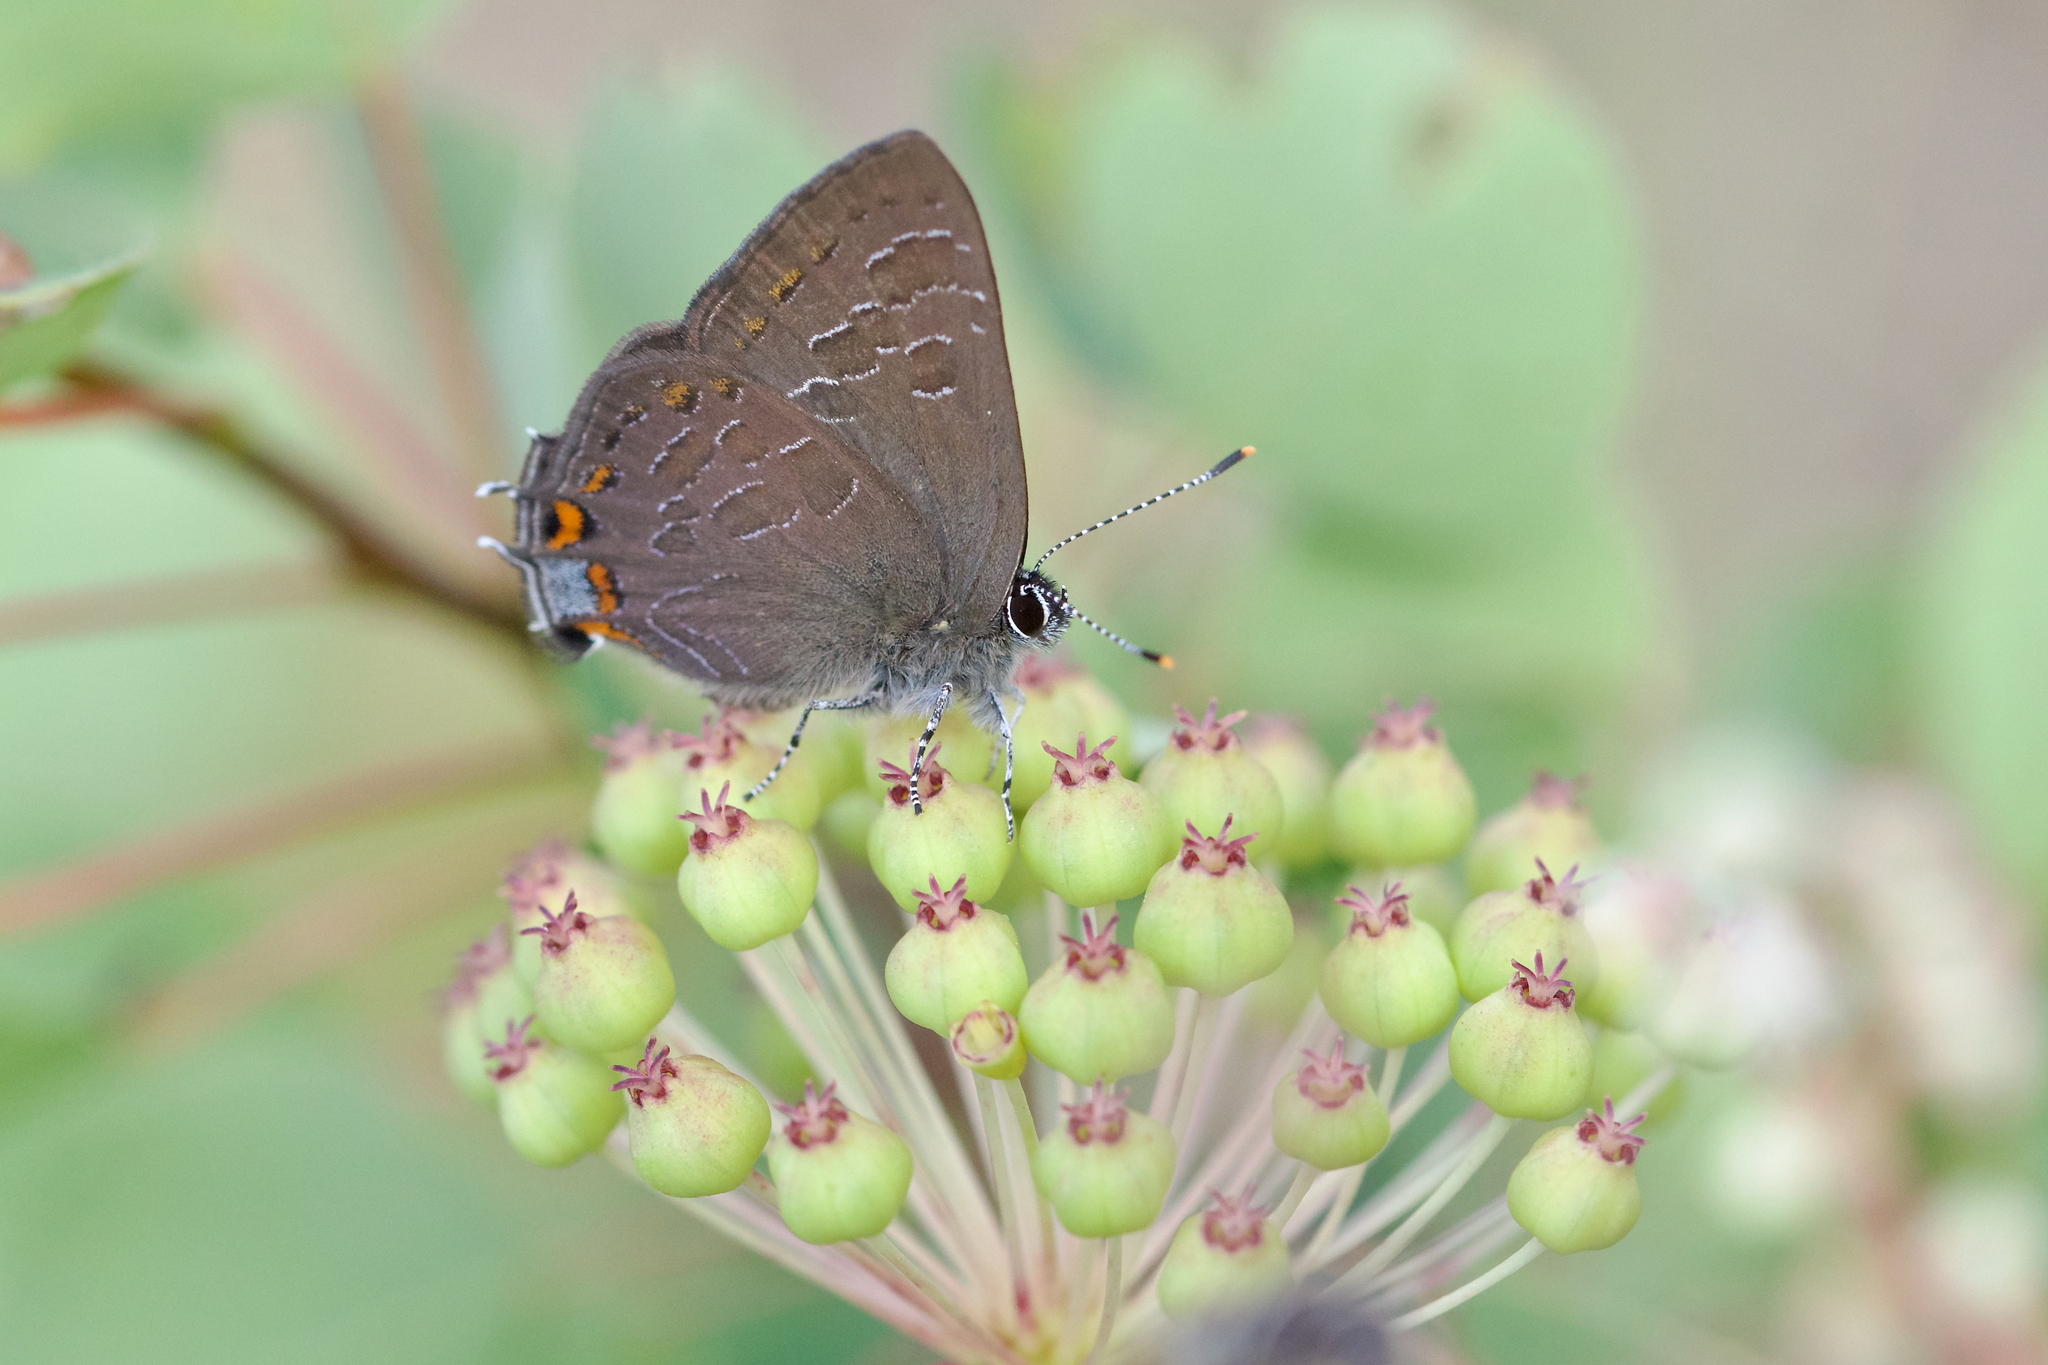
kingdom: Animalia
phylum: Arthropoda
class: Insecta
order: Lepidoptera
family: Lycaenidae
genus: Satyrium
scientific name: Satyrium liparops
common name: Striped hairstreak
